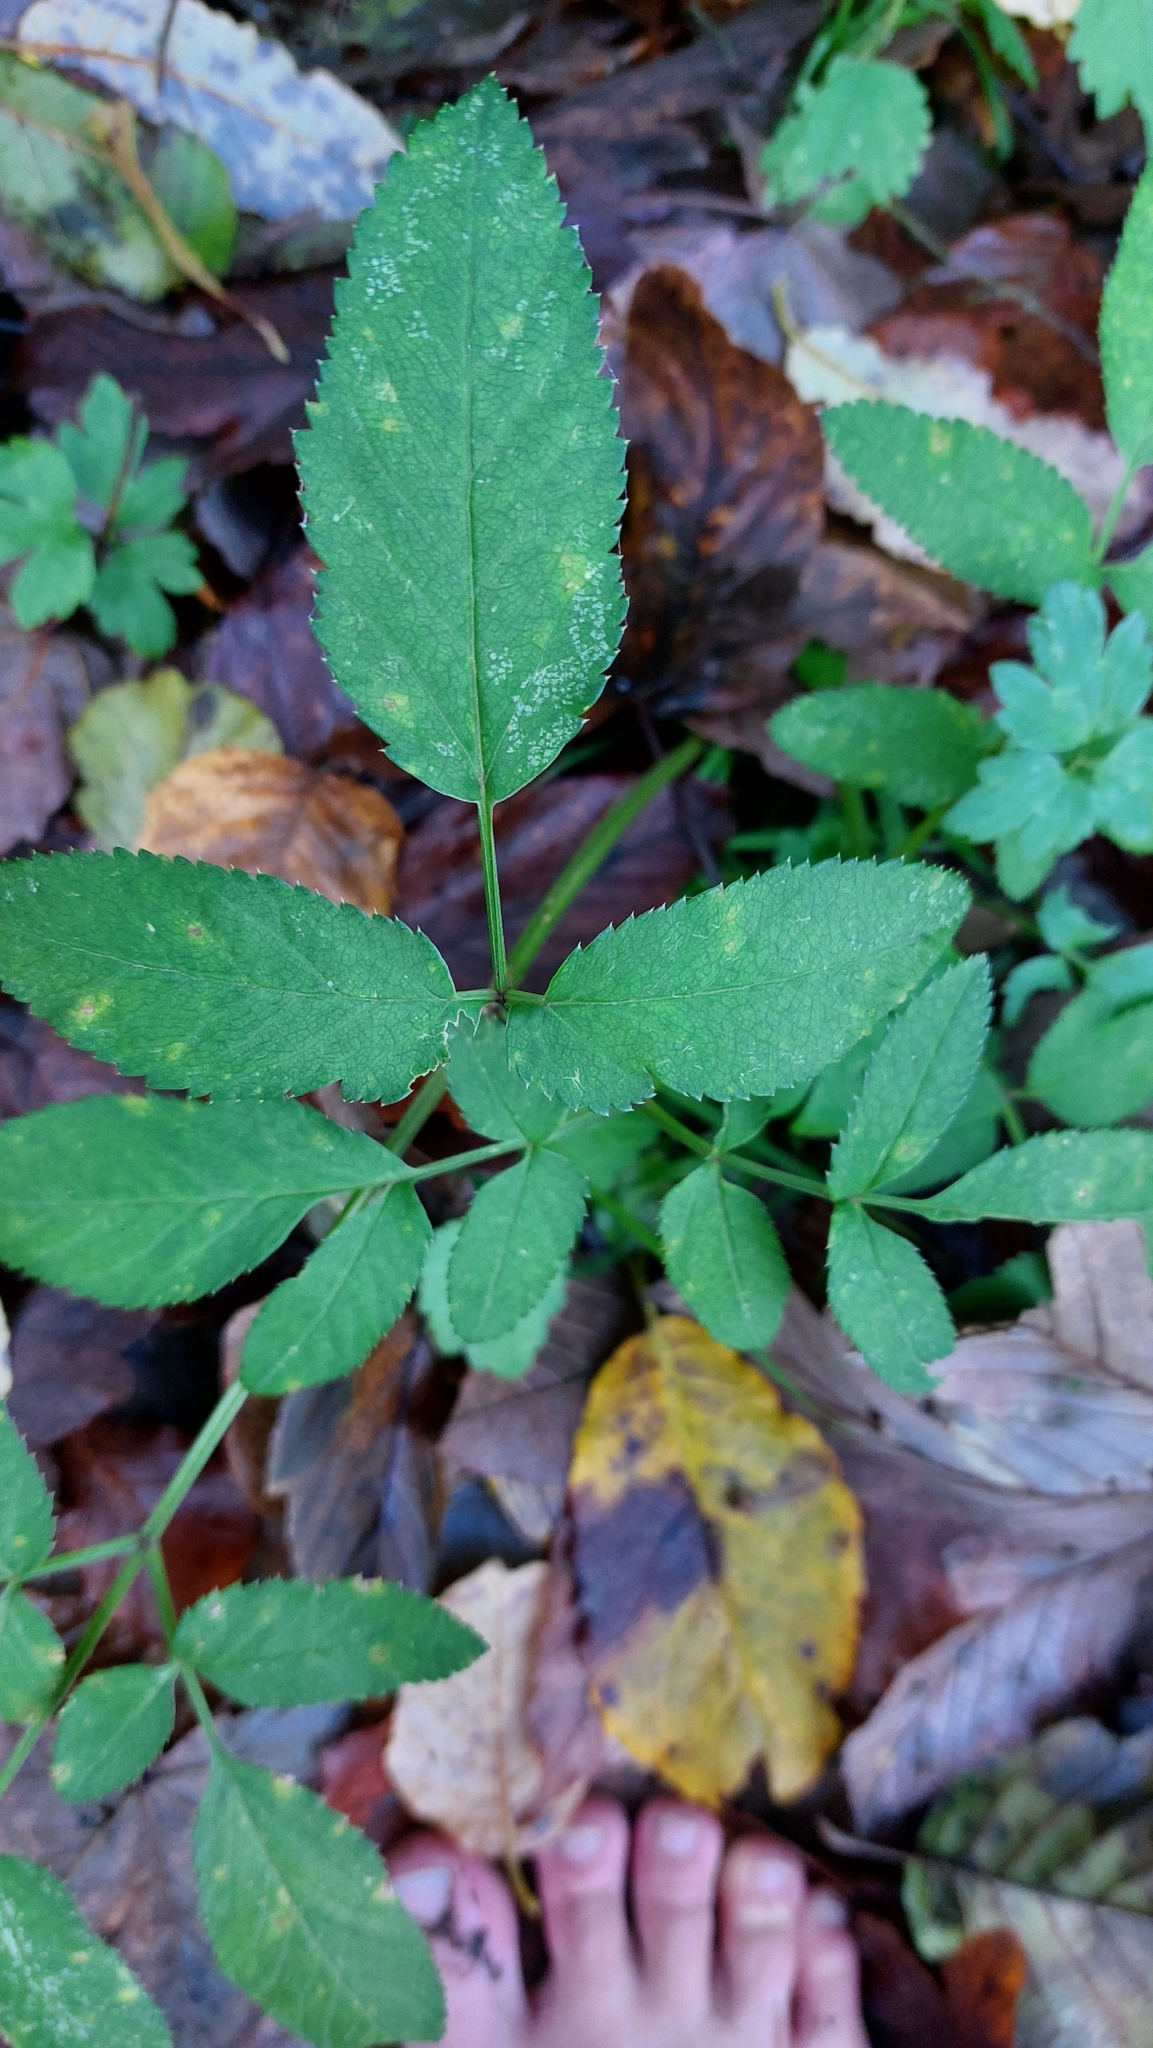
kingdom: Plantae
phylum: Tracheophyta
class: Magnoliopsida
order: Apiales
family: Apiaceae
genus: Angelica
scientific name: Angelica sylvestris
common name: Wild angelica
